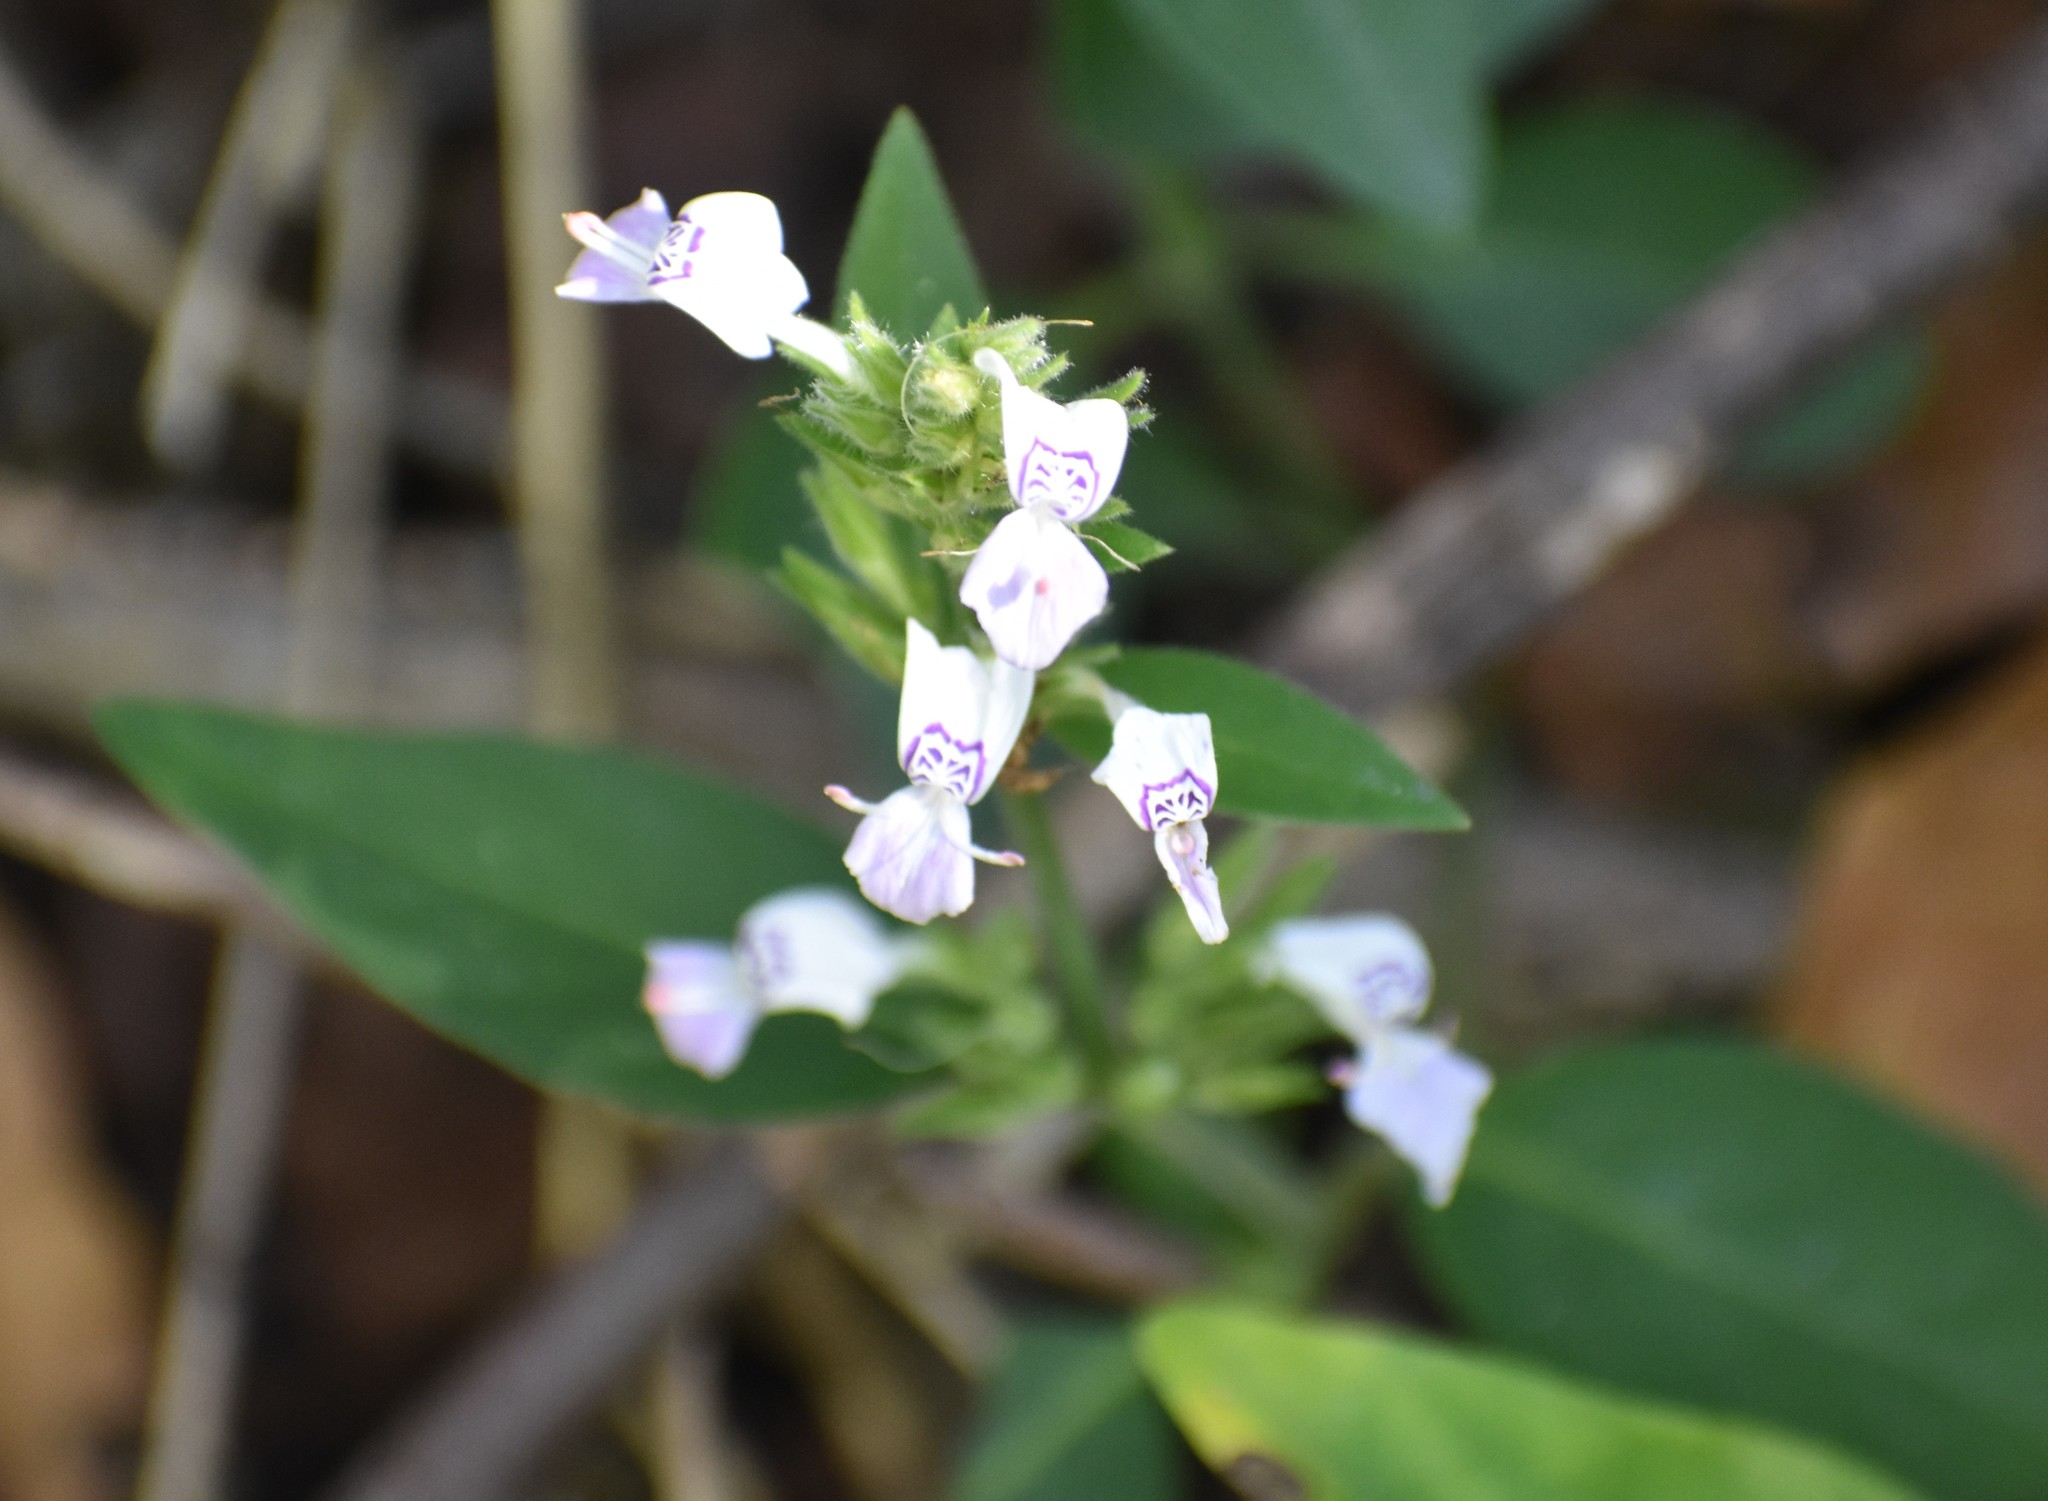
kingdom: Plantae
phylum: Tracheophyta
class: Magnoliopsida
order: Lamiales
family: Acanthaceae
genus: Hypoestes
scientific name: Hypoestes forskaolii
